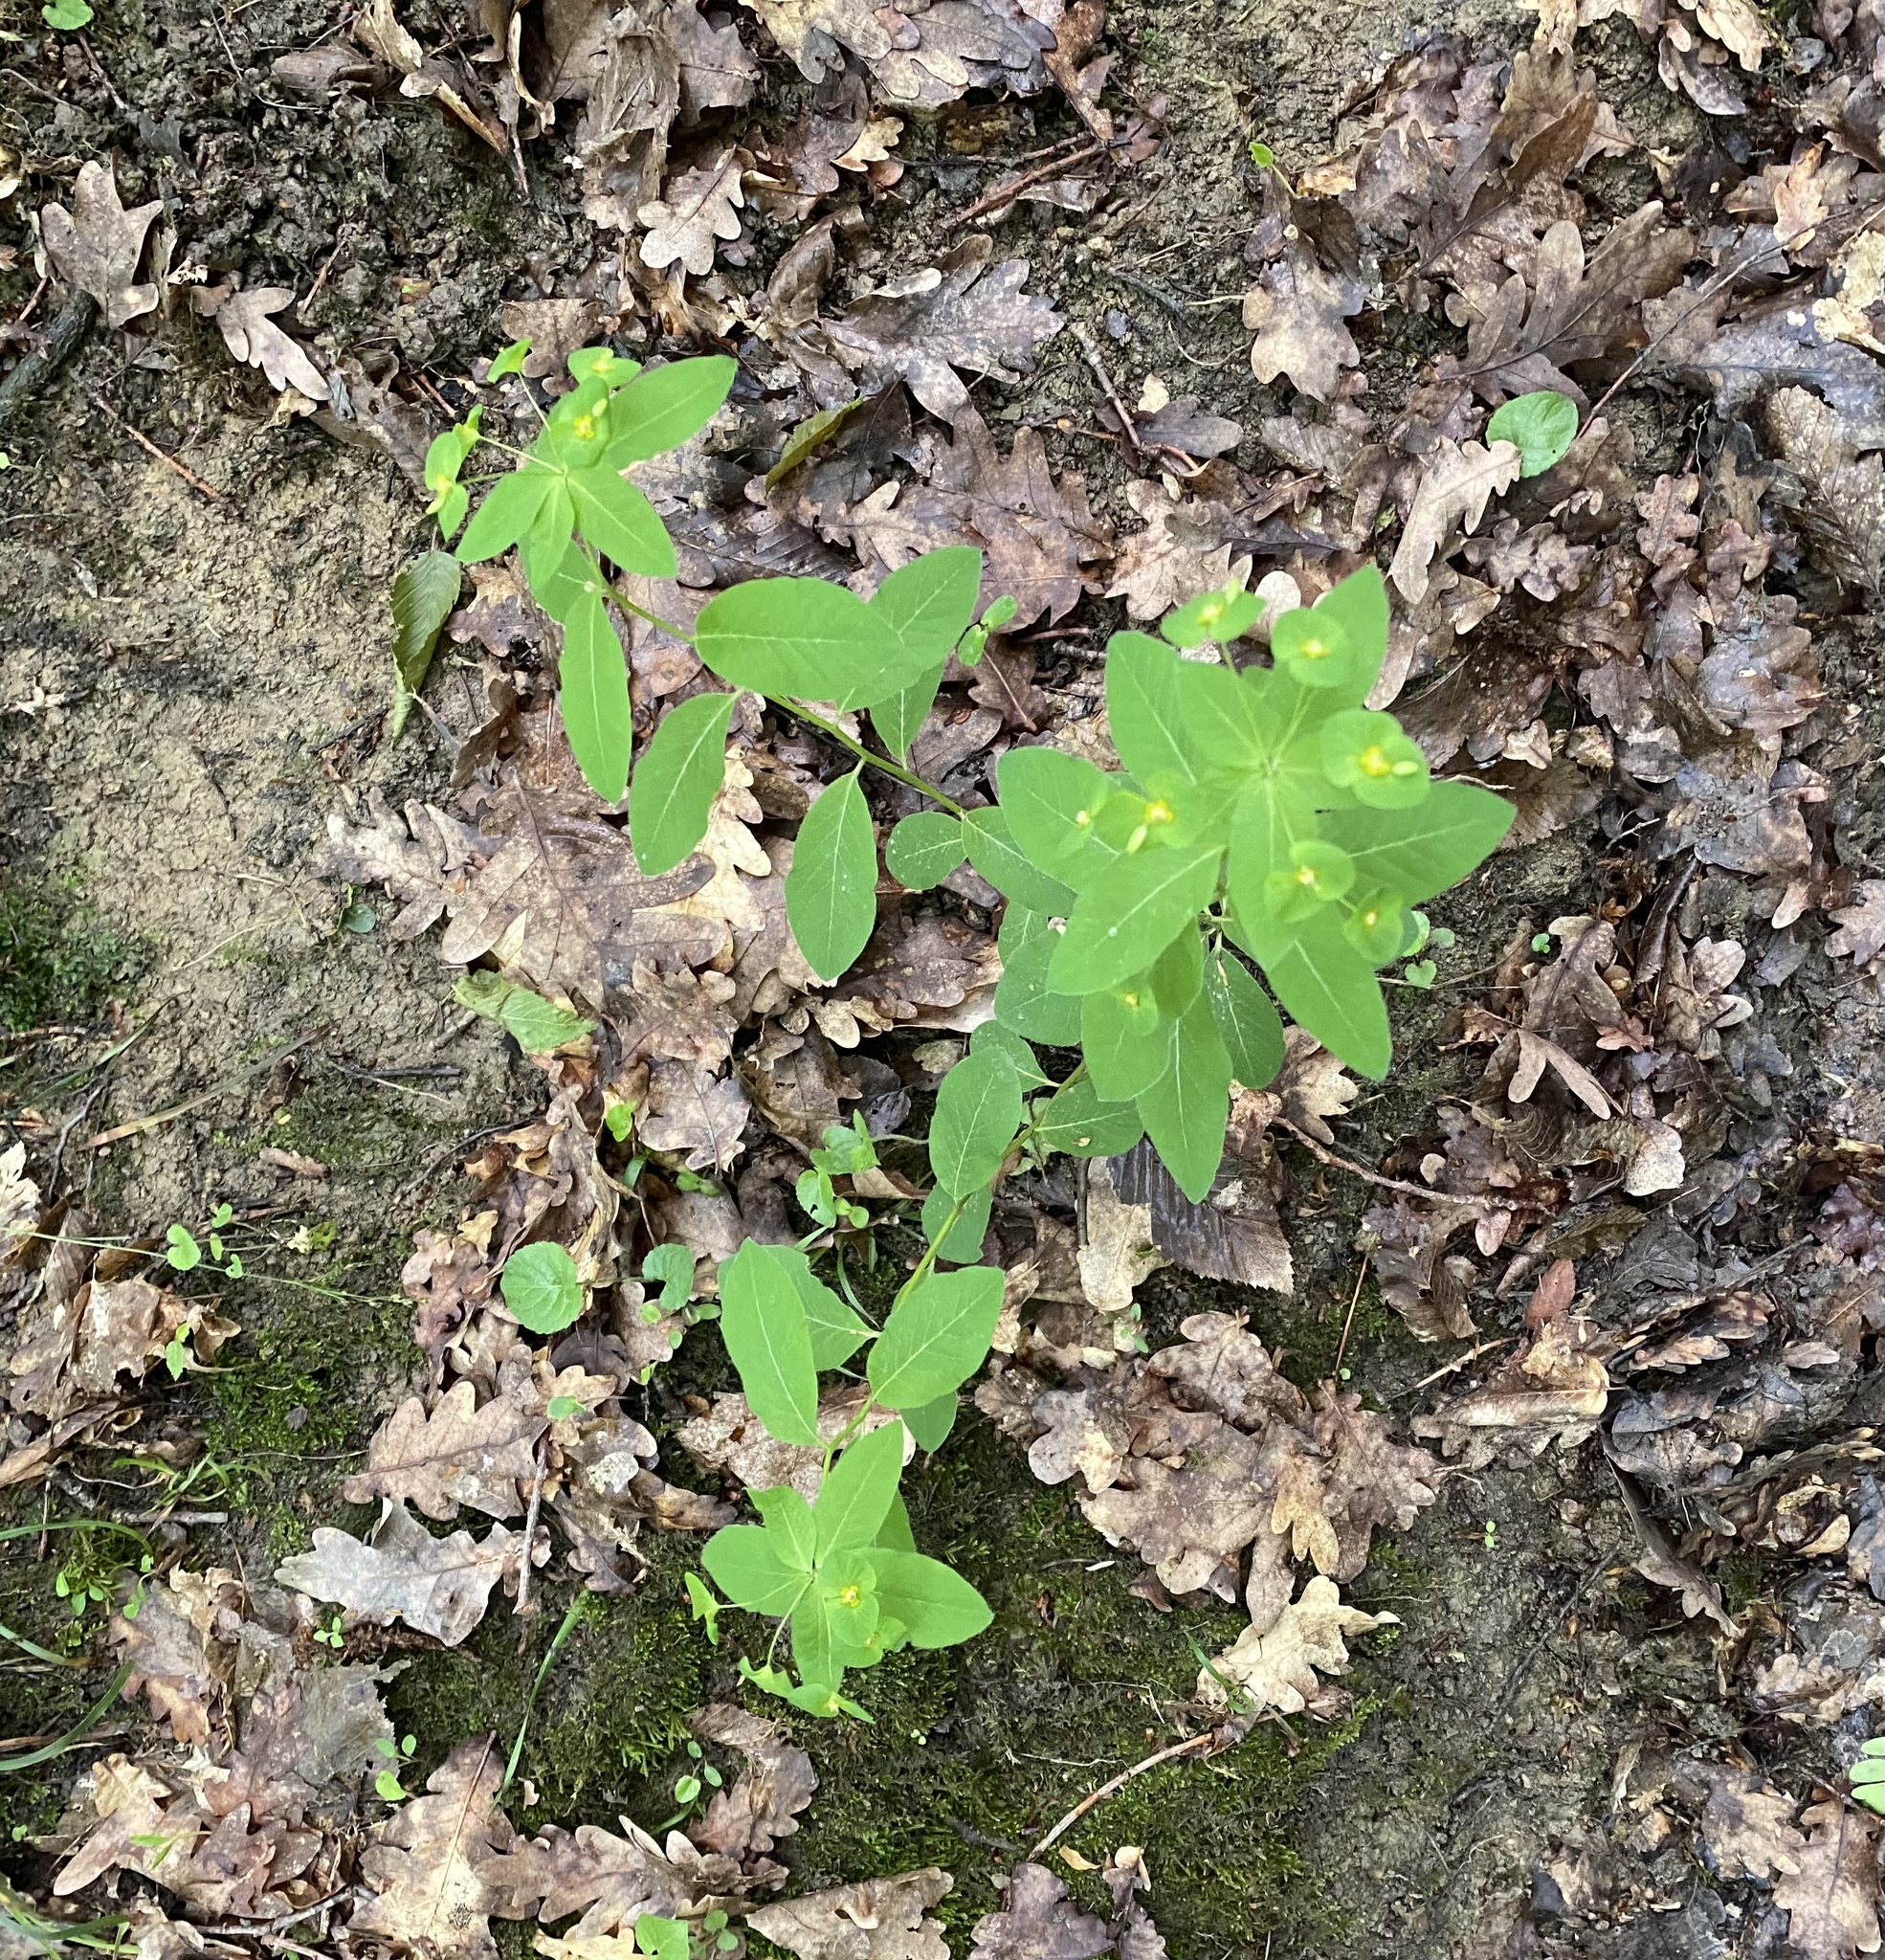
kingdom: Plantae
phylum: Tracheophyta
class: Magnoliopsida
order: Malpighiales
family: Euphorbiaceae
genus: Euphorbia
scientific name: Euphorbia squamosa
